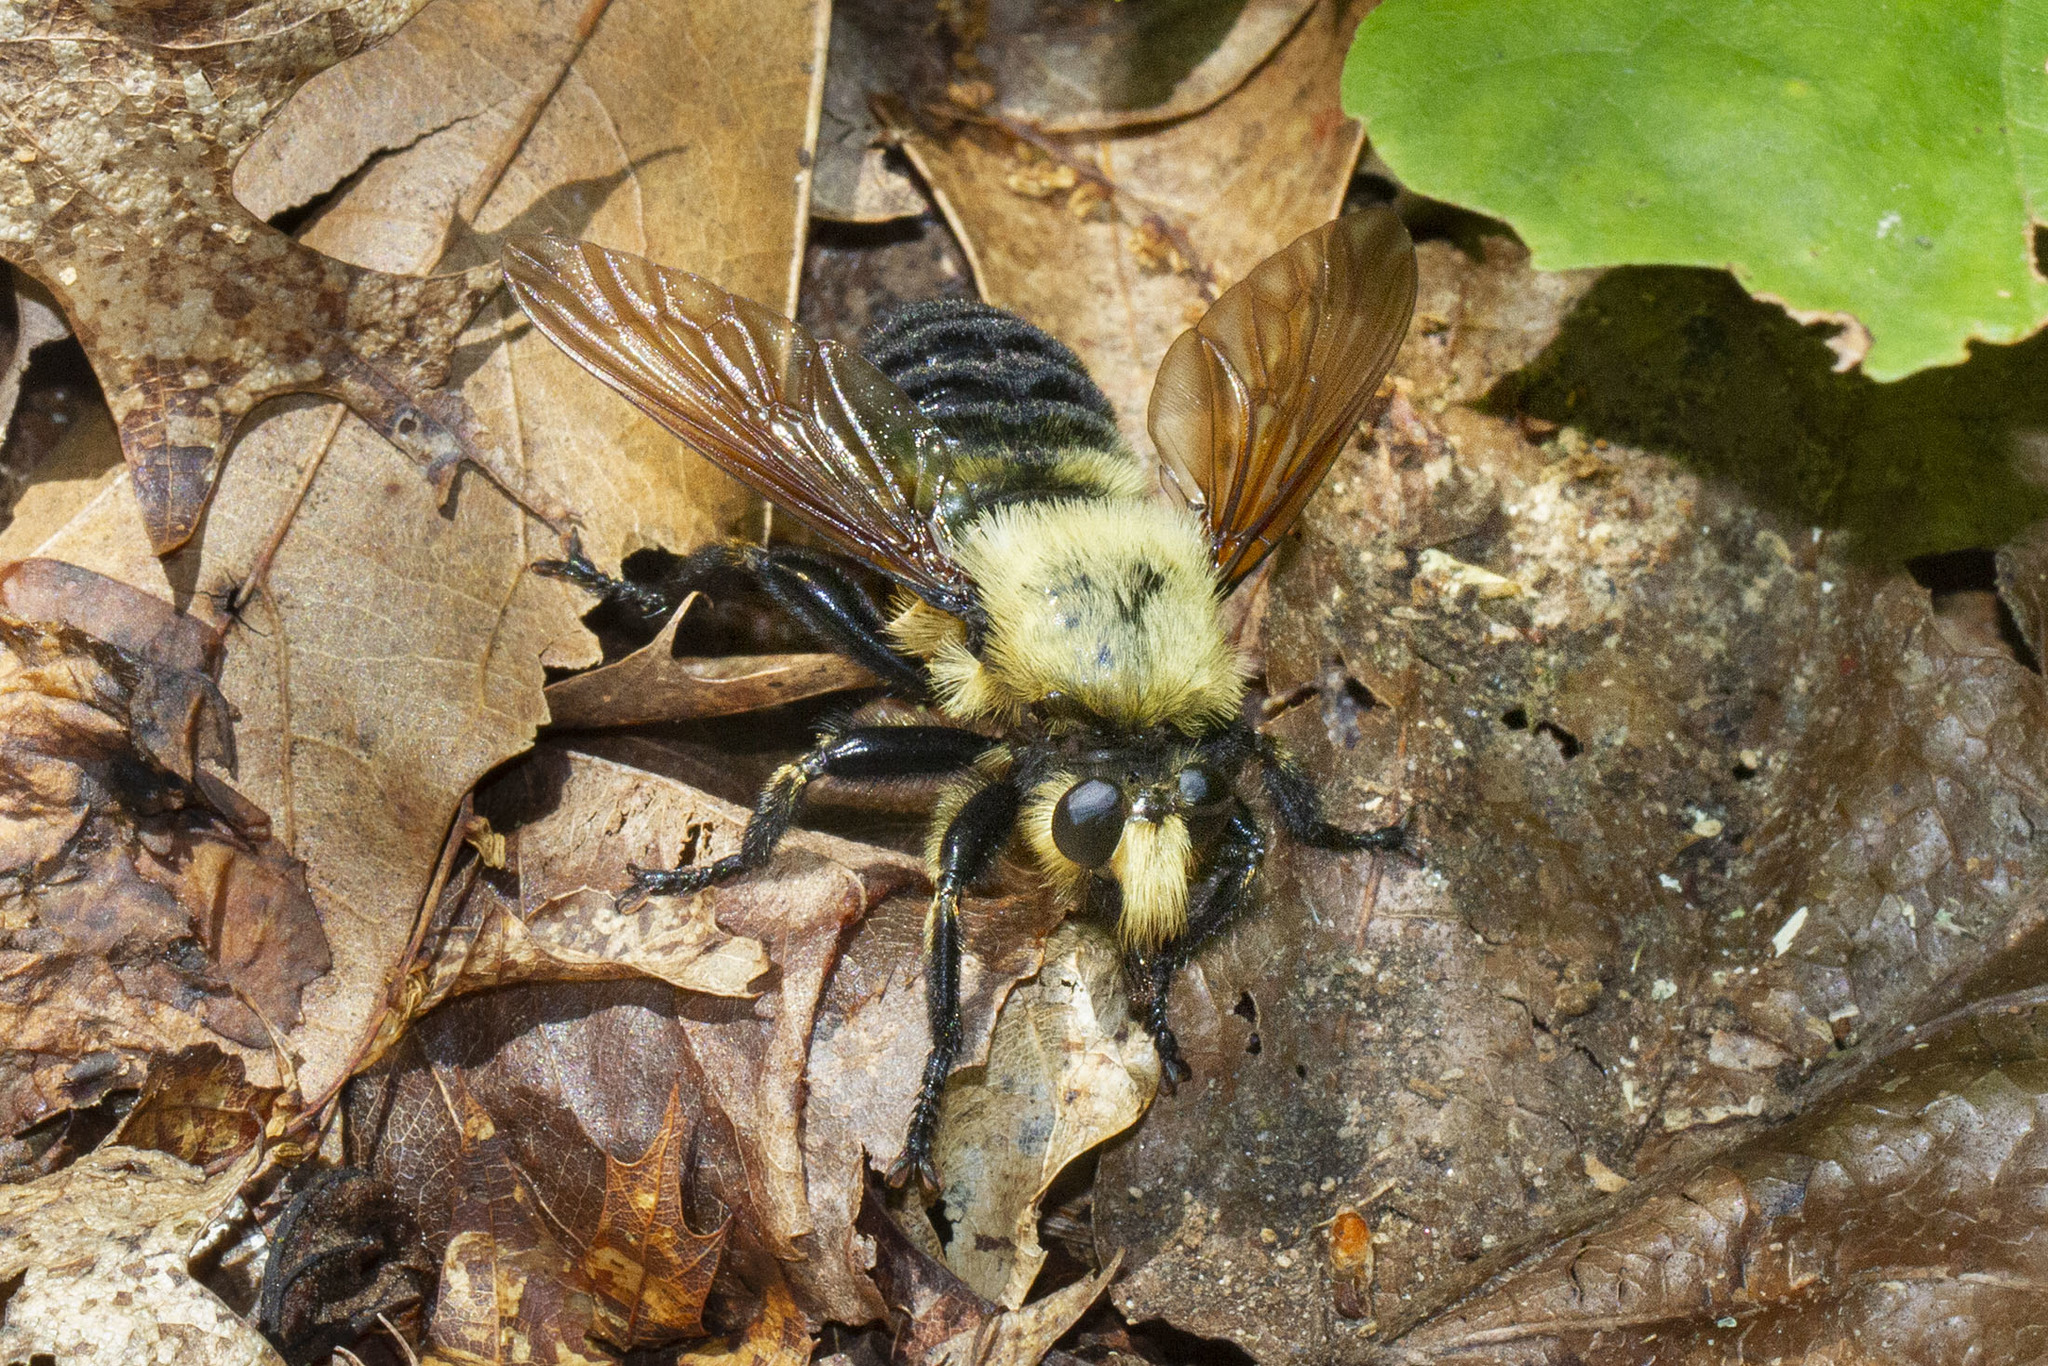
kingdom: Animalia
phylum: Arthropoda
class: Insecta
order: Diptera
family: Asilidae
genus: Laphria
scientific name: Laphria grossa
